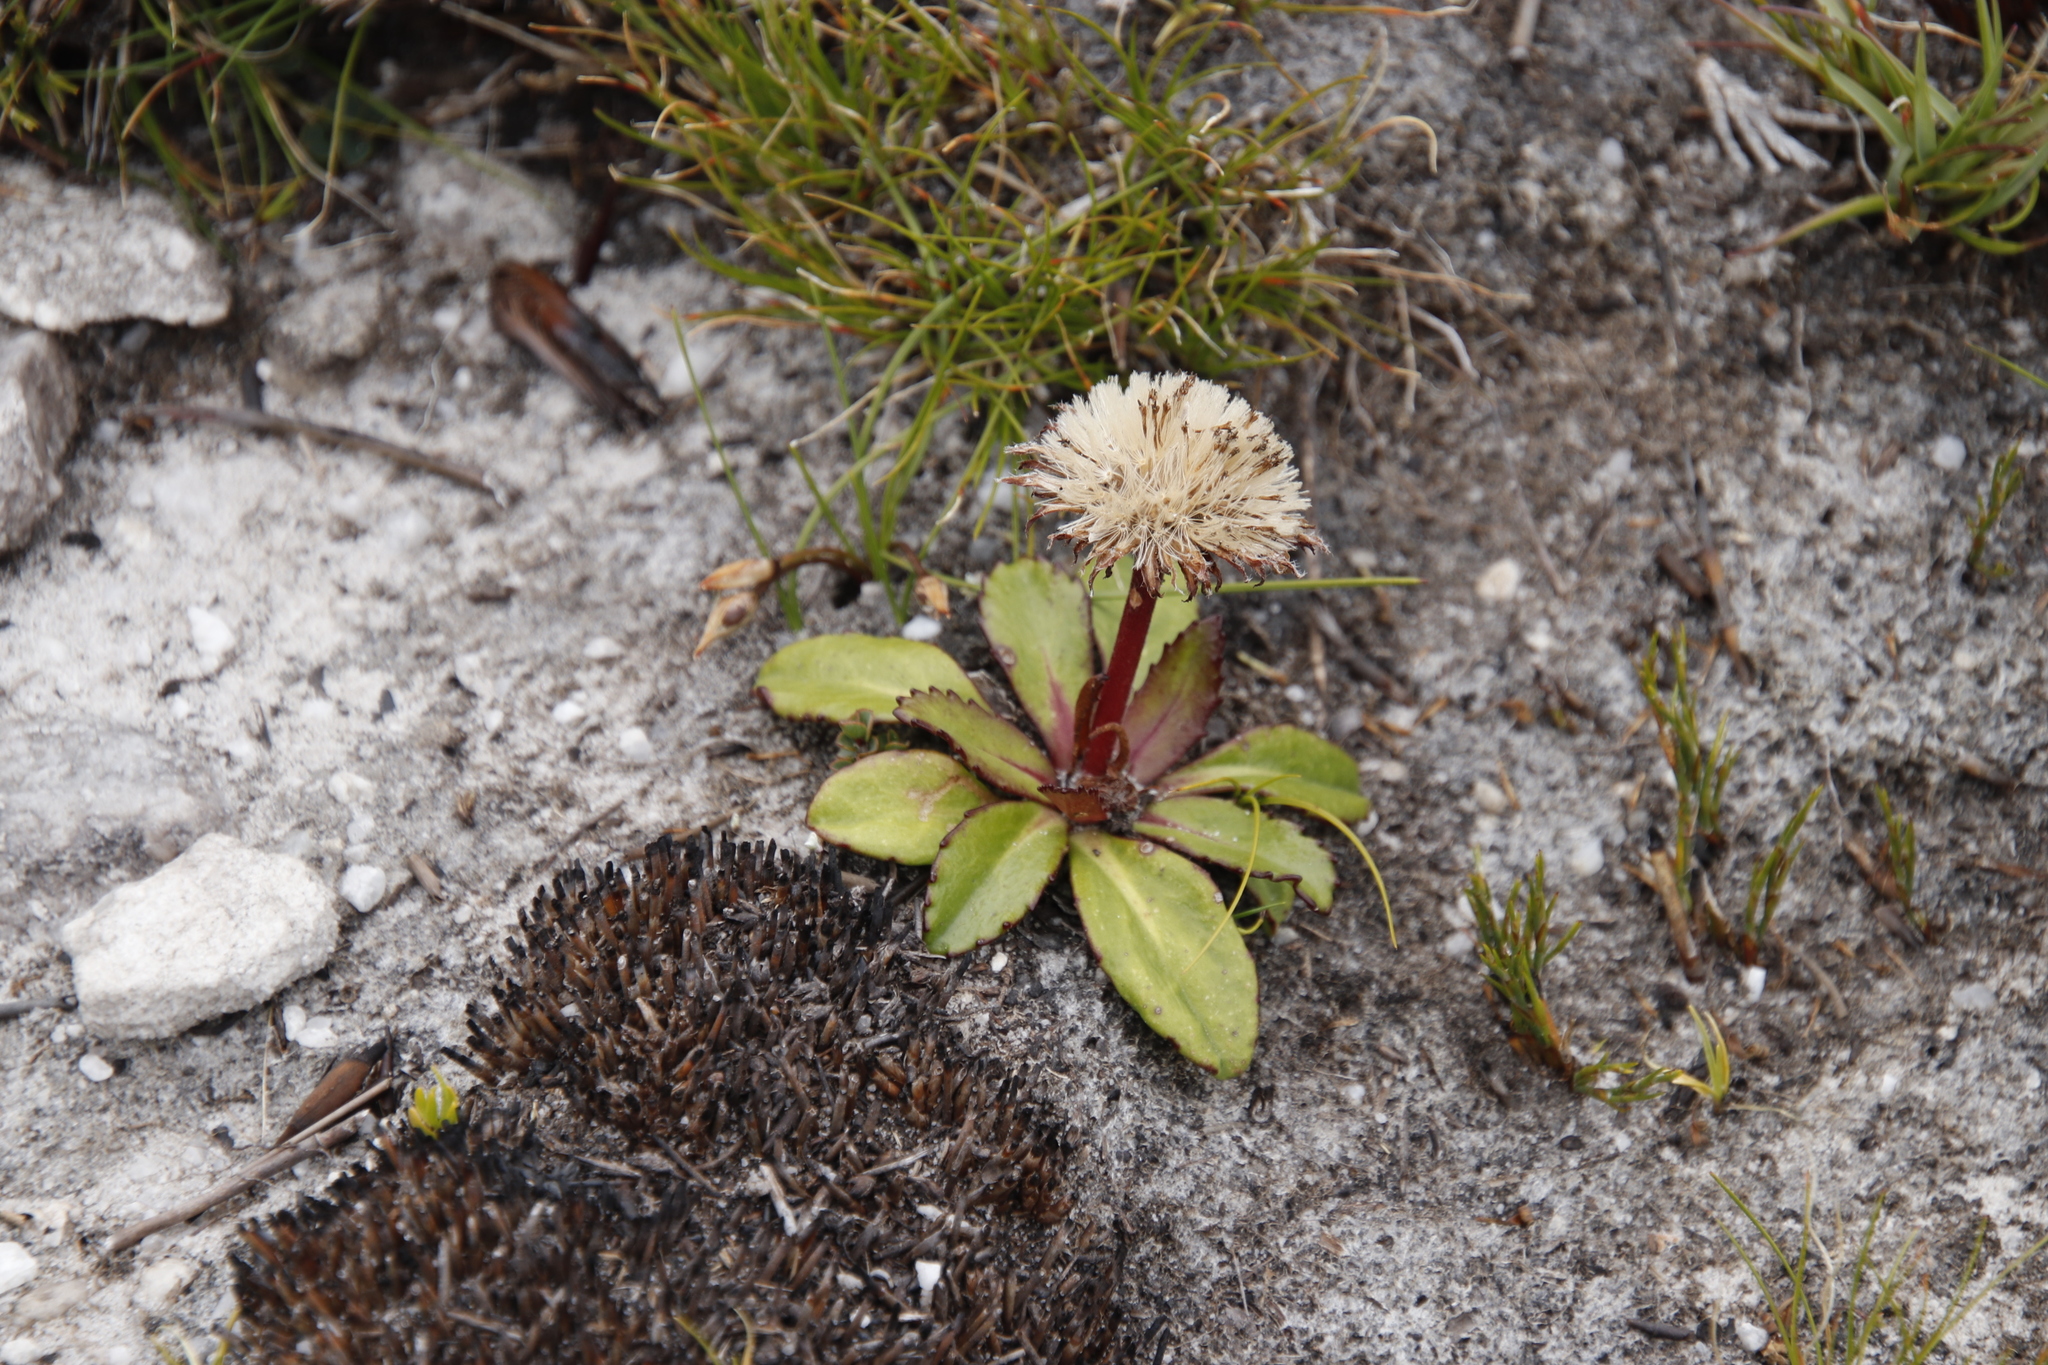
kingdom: Plantae
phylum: Tracheophyta
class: Magnoliopsida
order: Asterales
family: Asteraceae
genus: Zyrphelis
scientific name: Zyrphelis crenata
